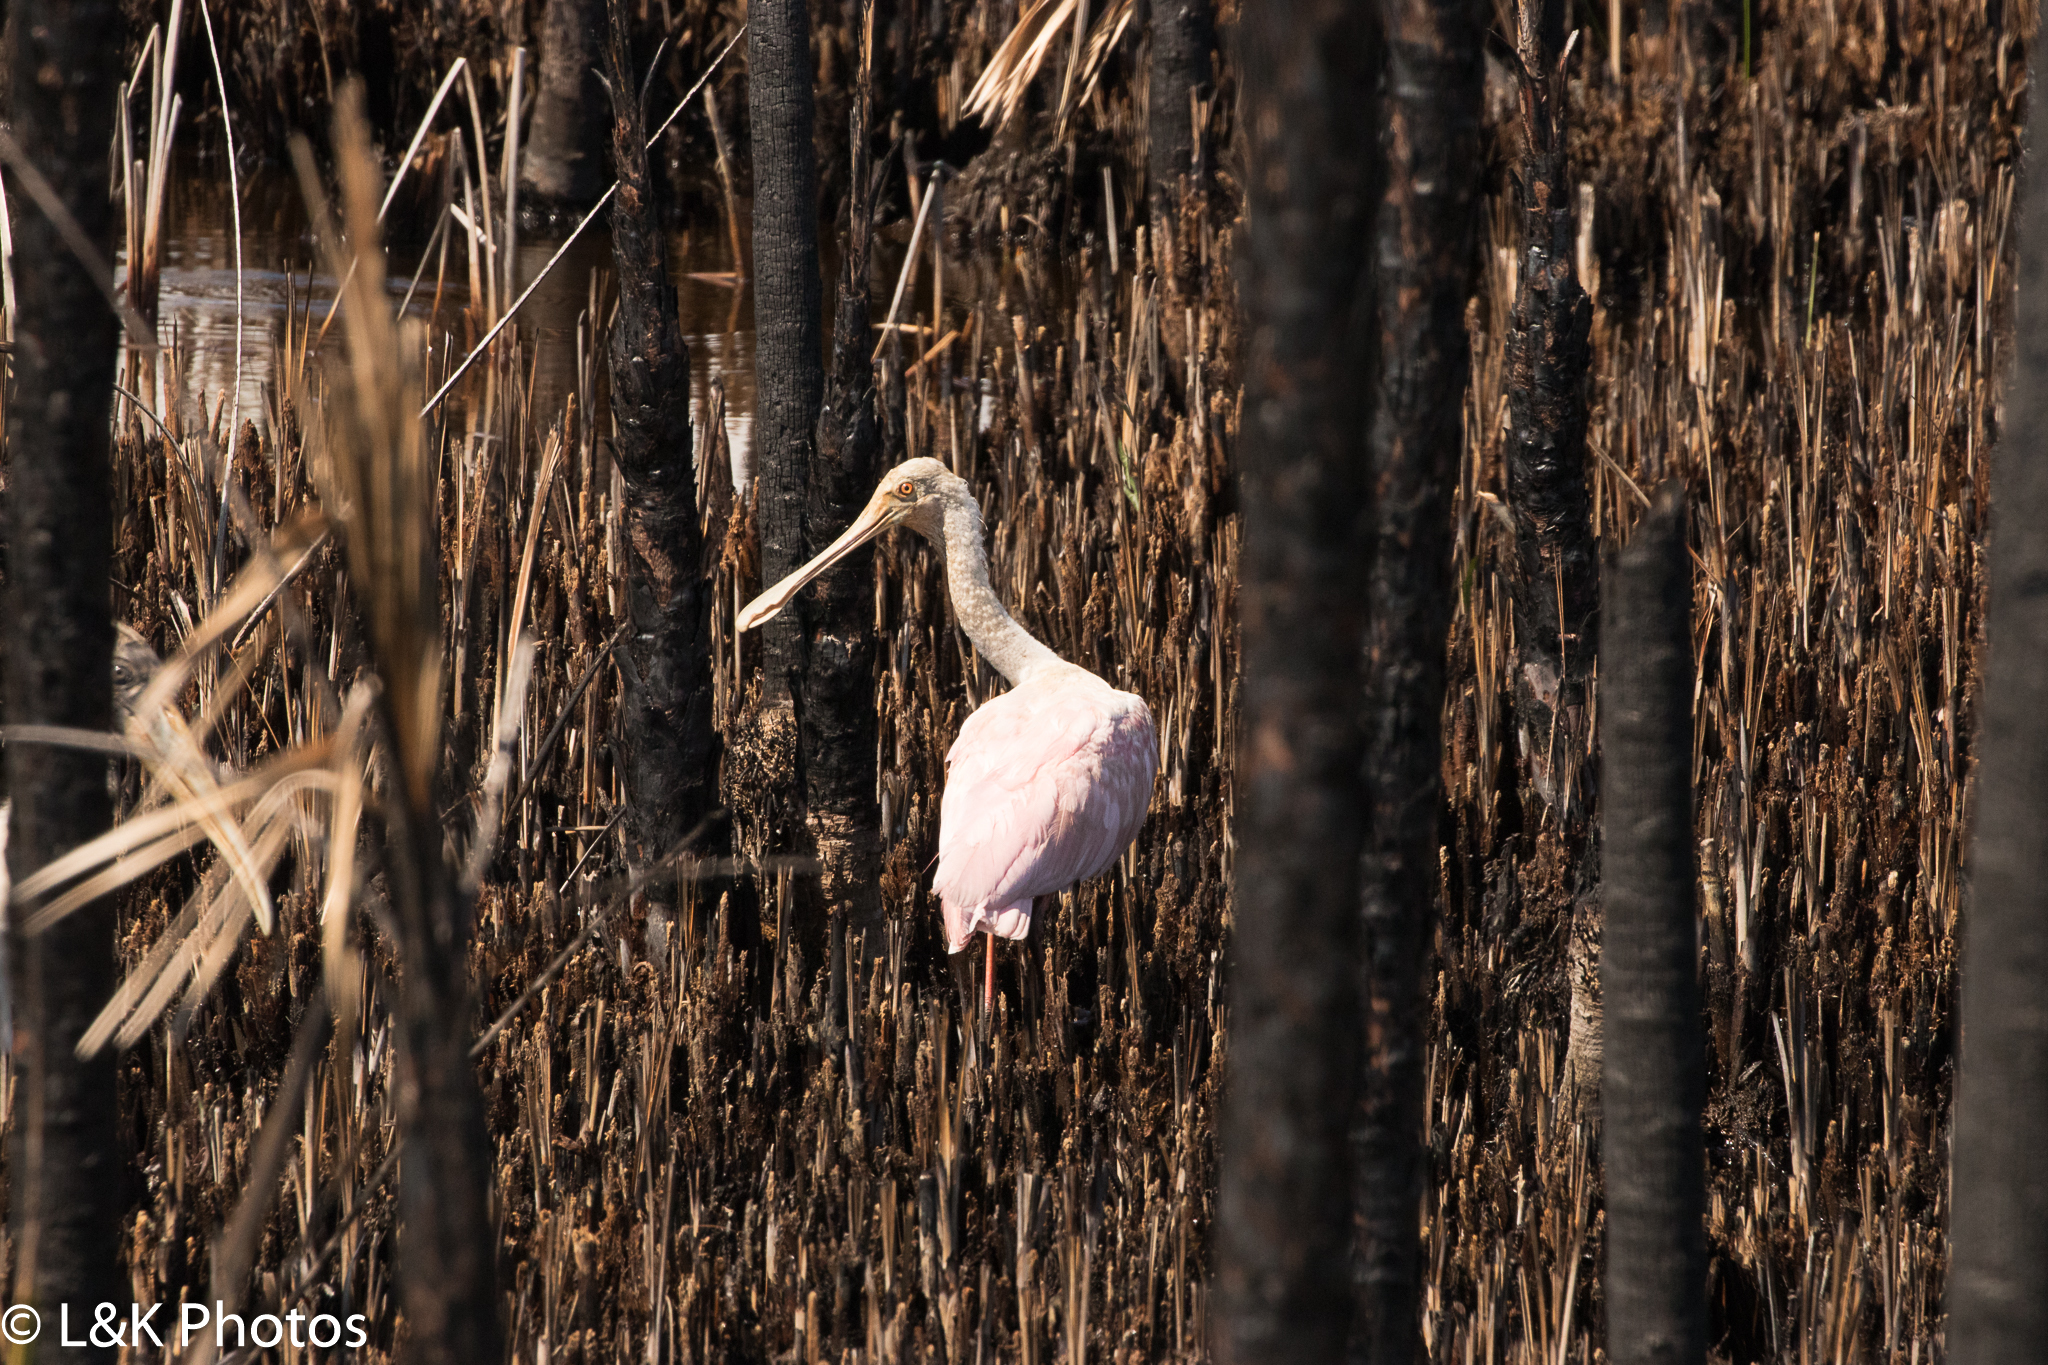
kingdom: Animalia
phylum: Chordata
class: Aves
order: Pelecaniformes
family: Threskiornithidae
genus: Platalea
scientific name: Platalea ajaja
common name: Roseate spoonbill
